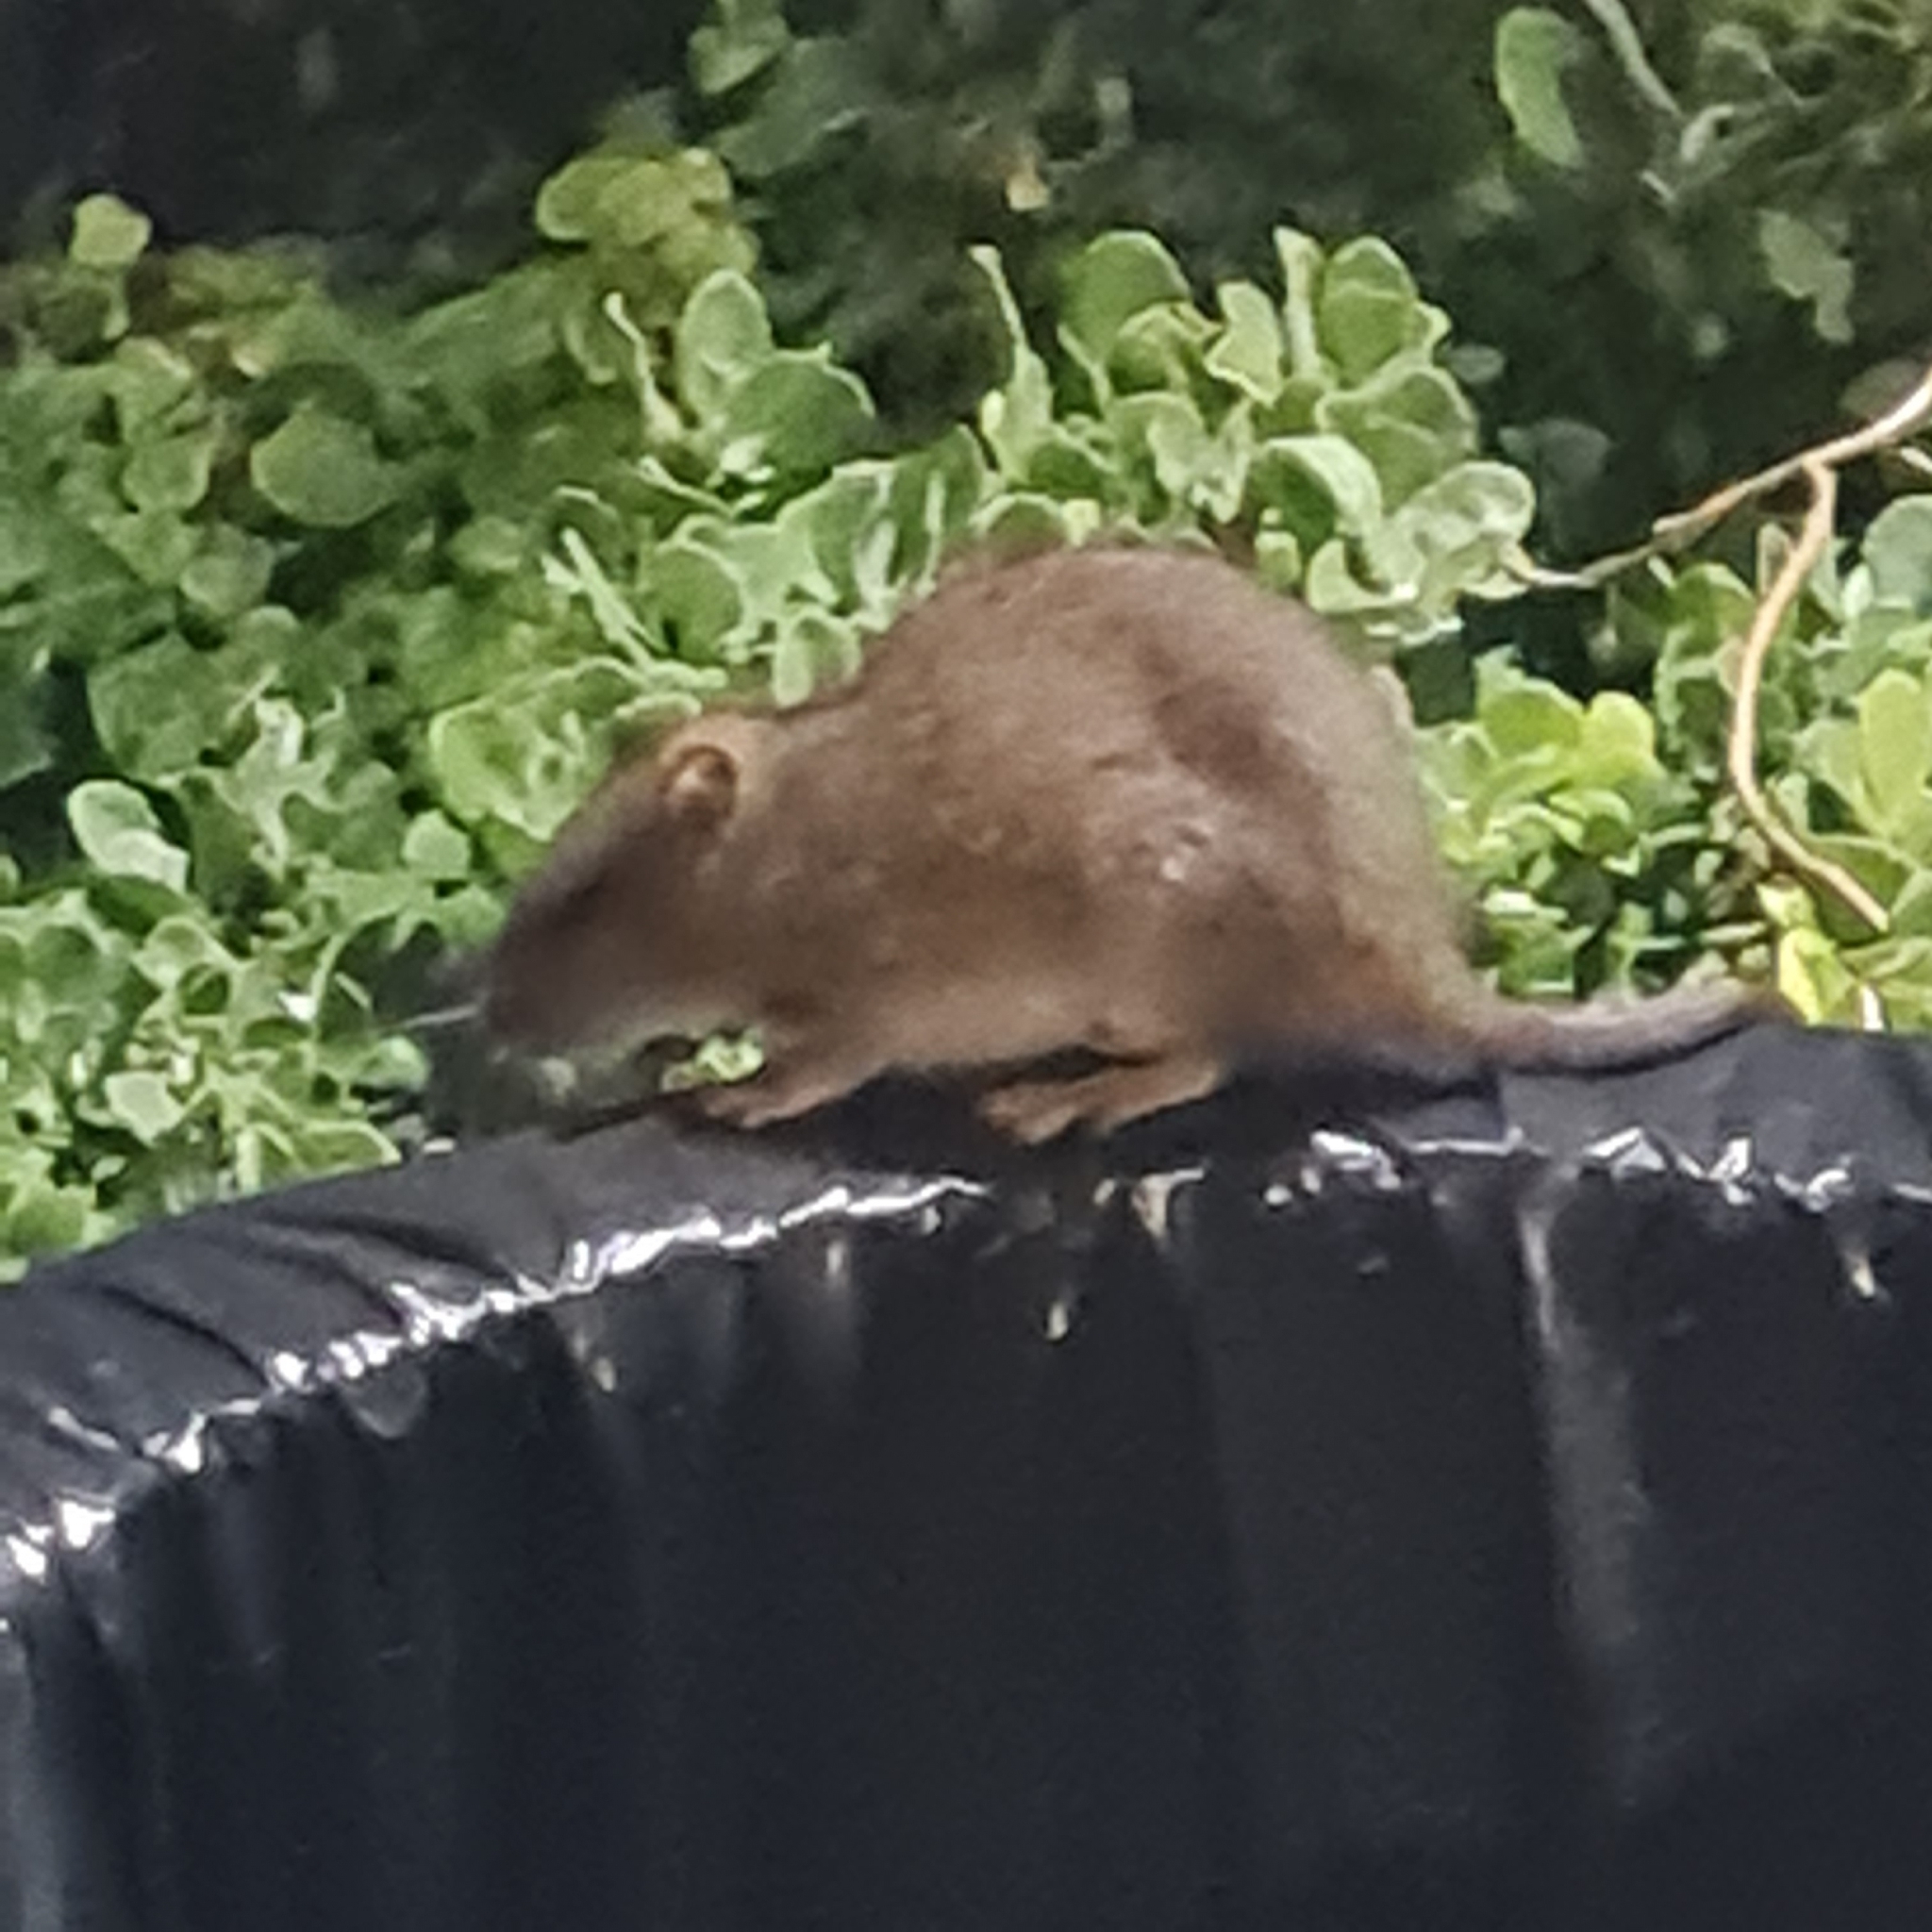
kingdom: Animalia
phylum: Chordata
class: Mammalia
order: Rodentia
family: Muridae
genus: Rattus
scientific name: Rattus rattus
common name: Black rat
